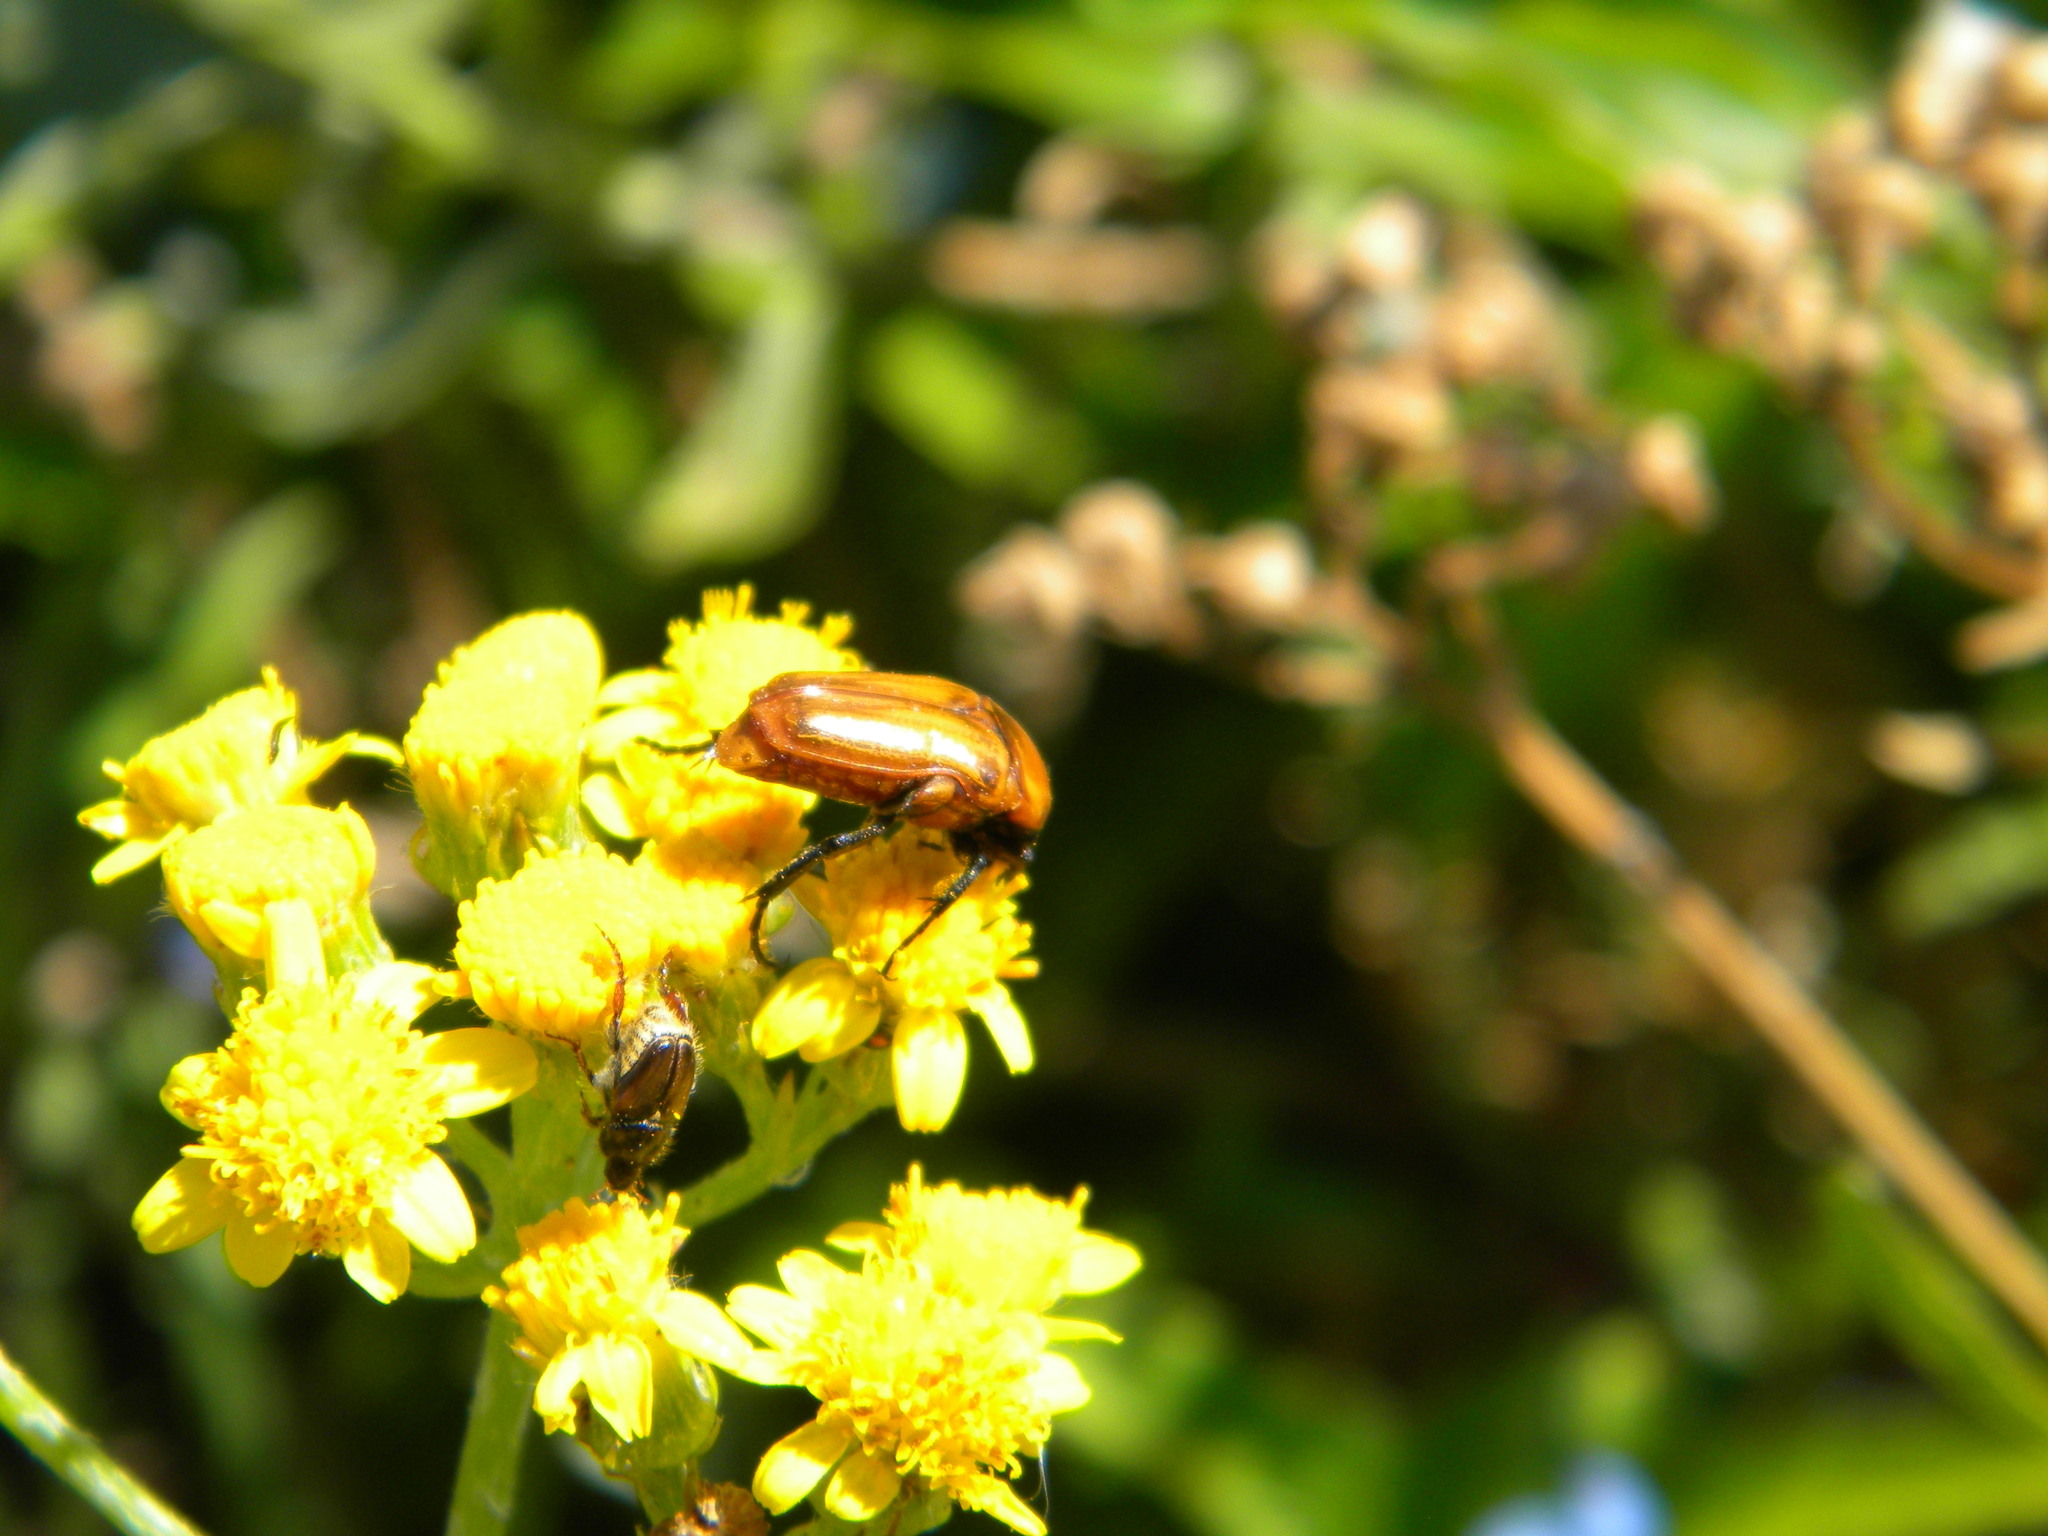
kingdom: Animalia
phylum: Arthropoda
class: Insecta
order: Coleoptera
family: Scarabaeidae
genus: Leucocelis
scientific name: Leucocelis rubra
